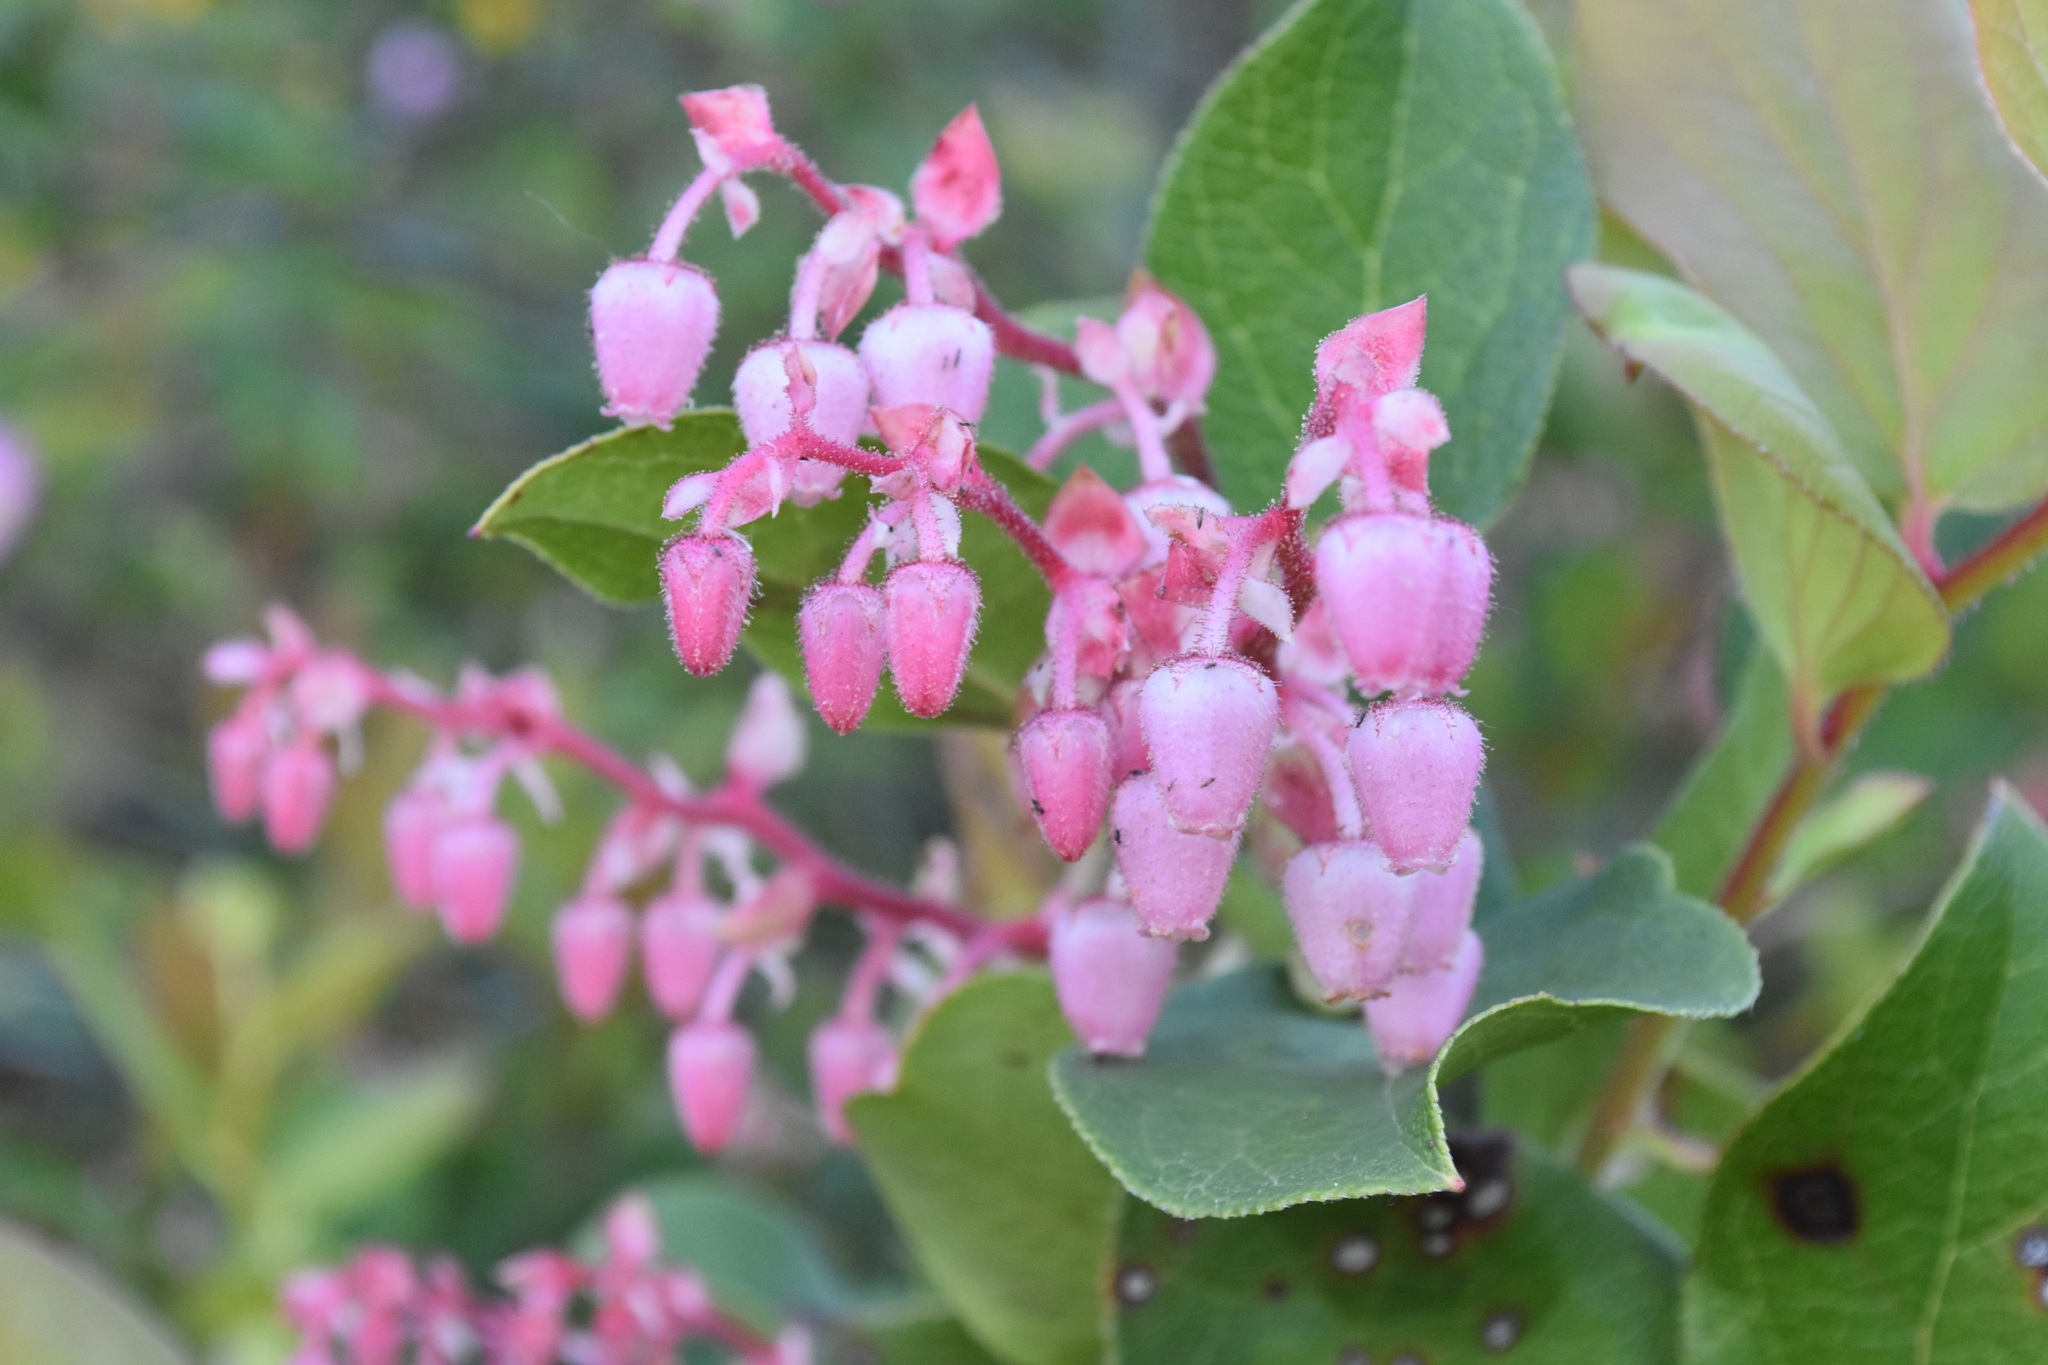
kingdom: Plantae
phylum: Tracheophyta
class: Magnoliopsida
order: Ericales
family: Ericaceae
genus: Gaultheria
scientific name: Gaultheria shallon
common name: Shallon
